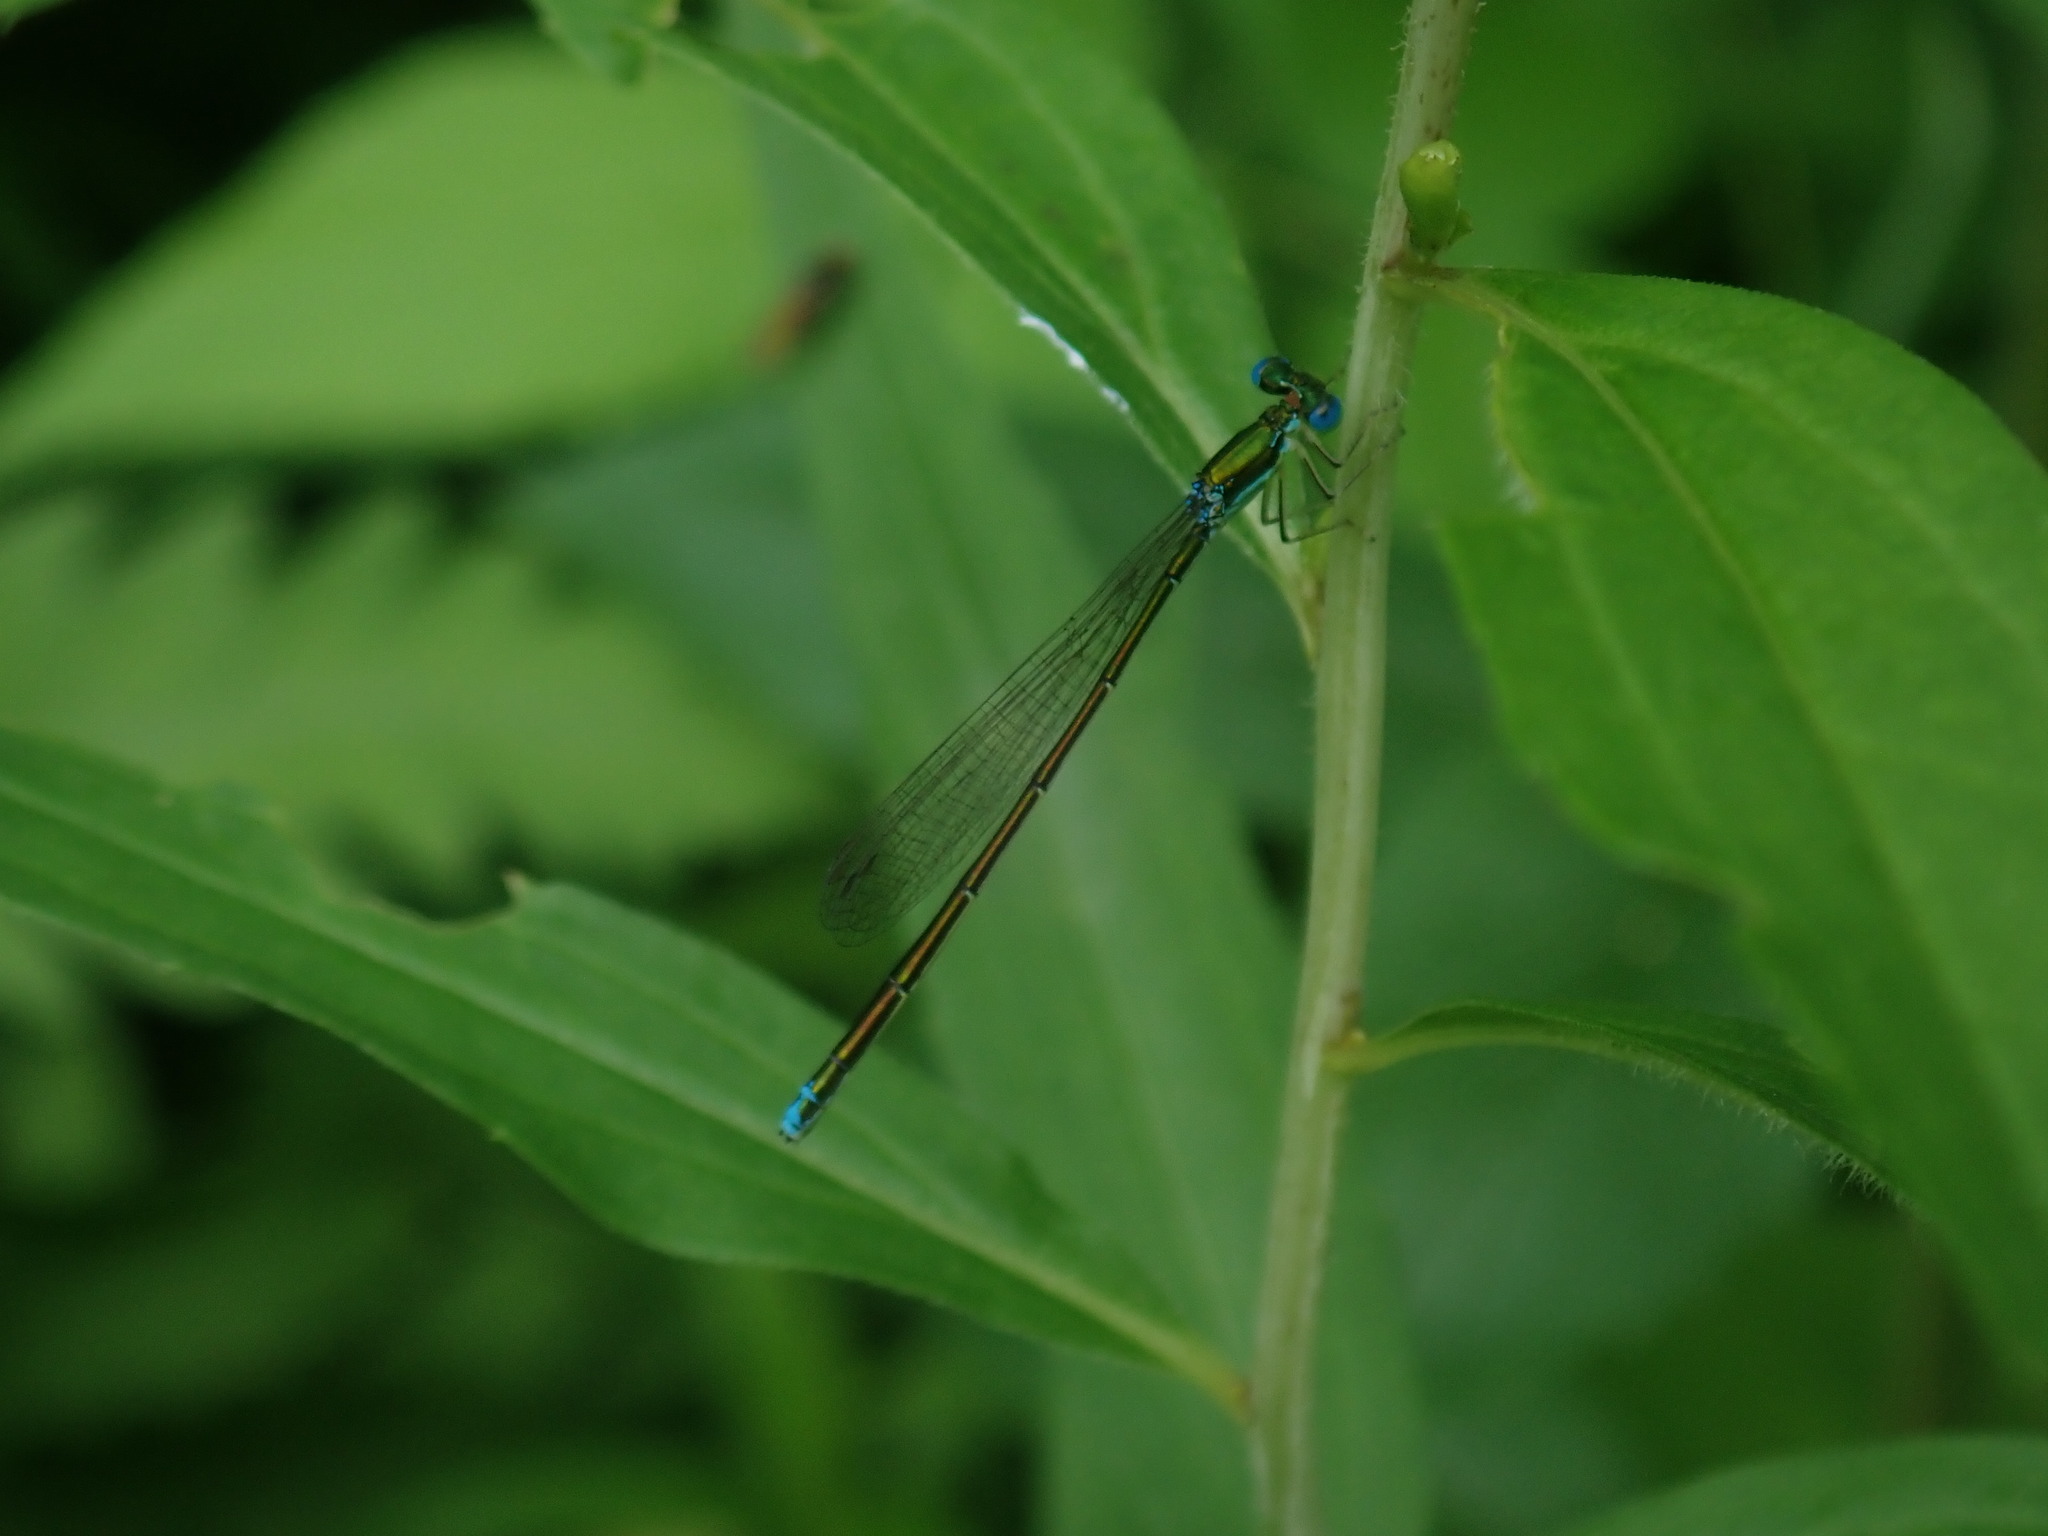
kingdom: Animalia
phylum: Arthropoda
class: Insecta
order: Odonata
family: Coenagrionidae
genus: Nehalennia
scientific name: Nehalennia irene
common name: Sedge sprite
